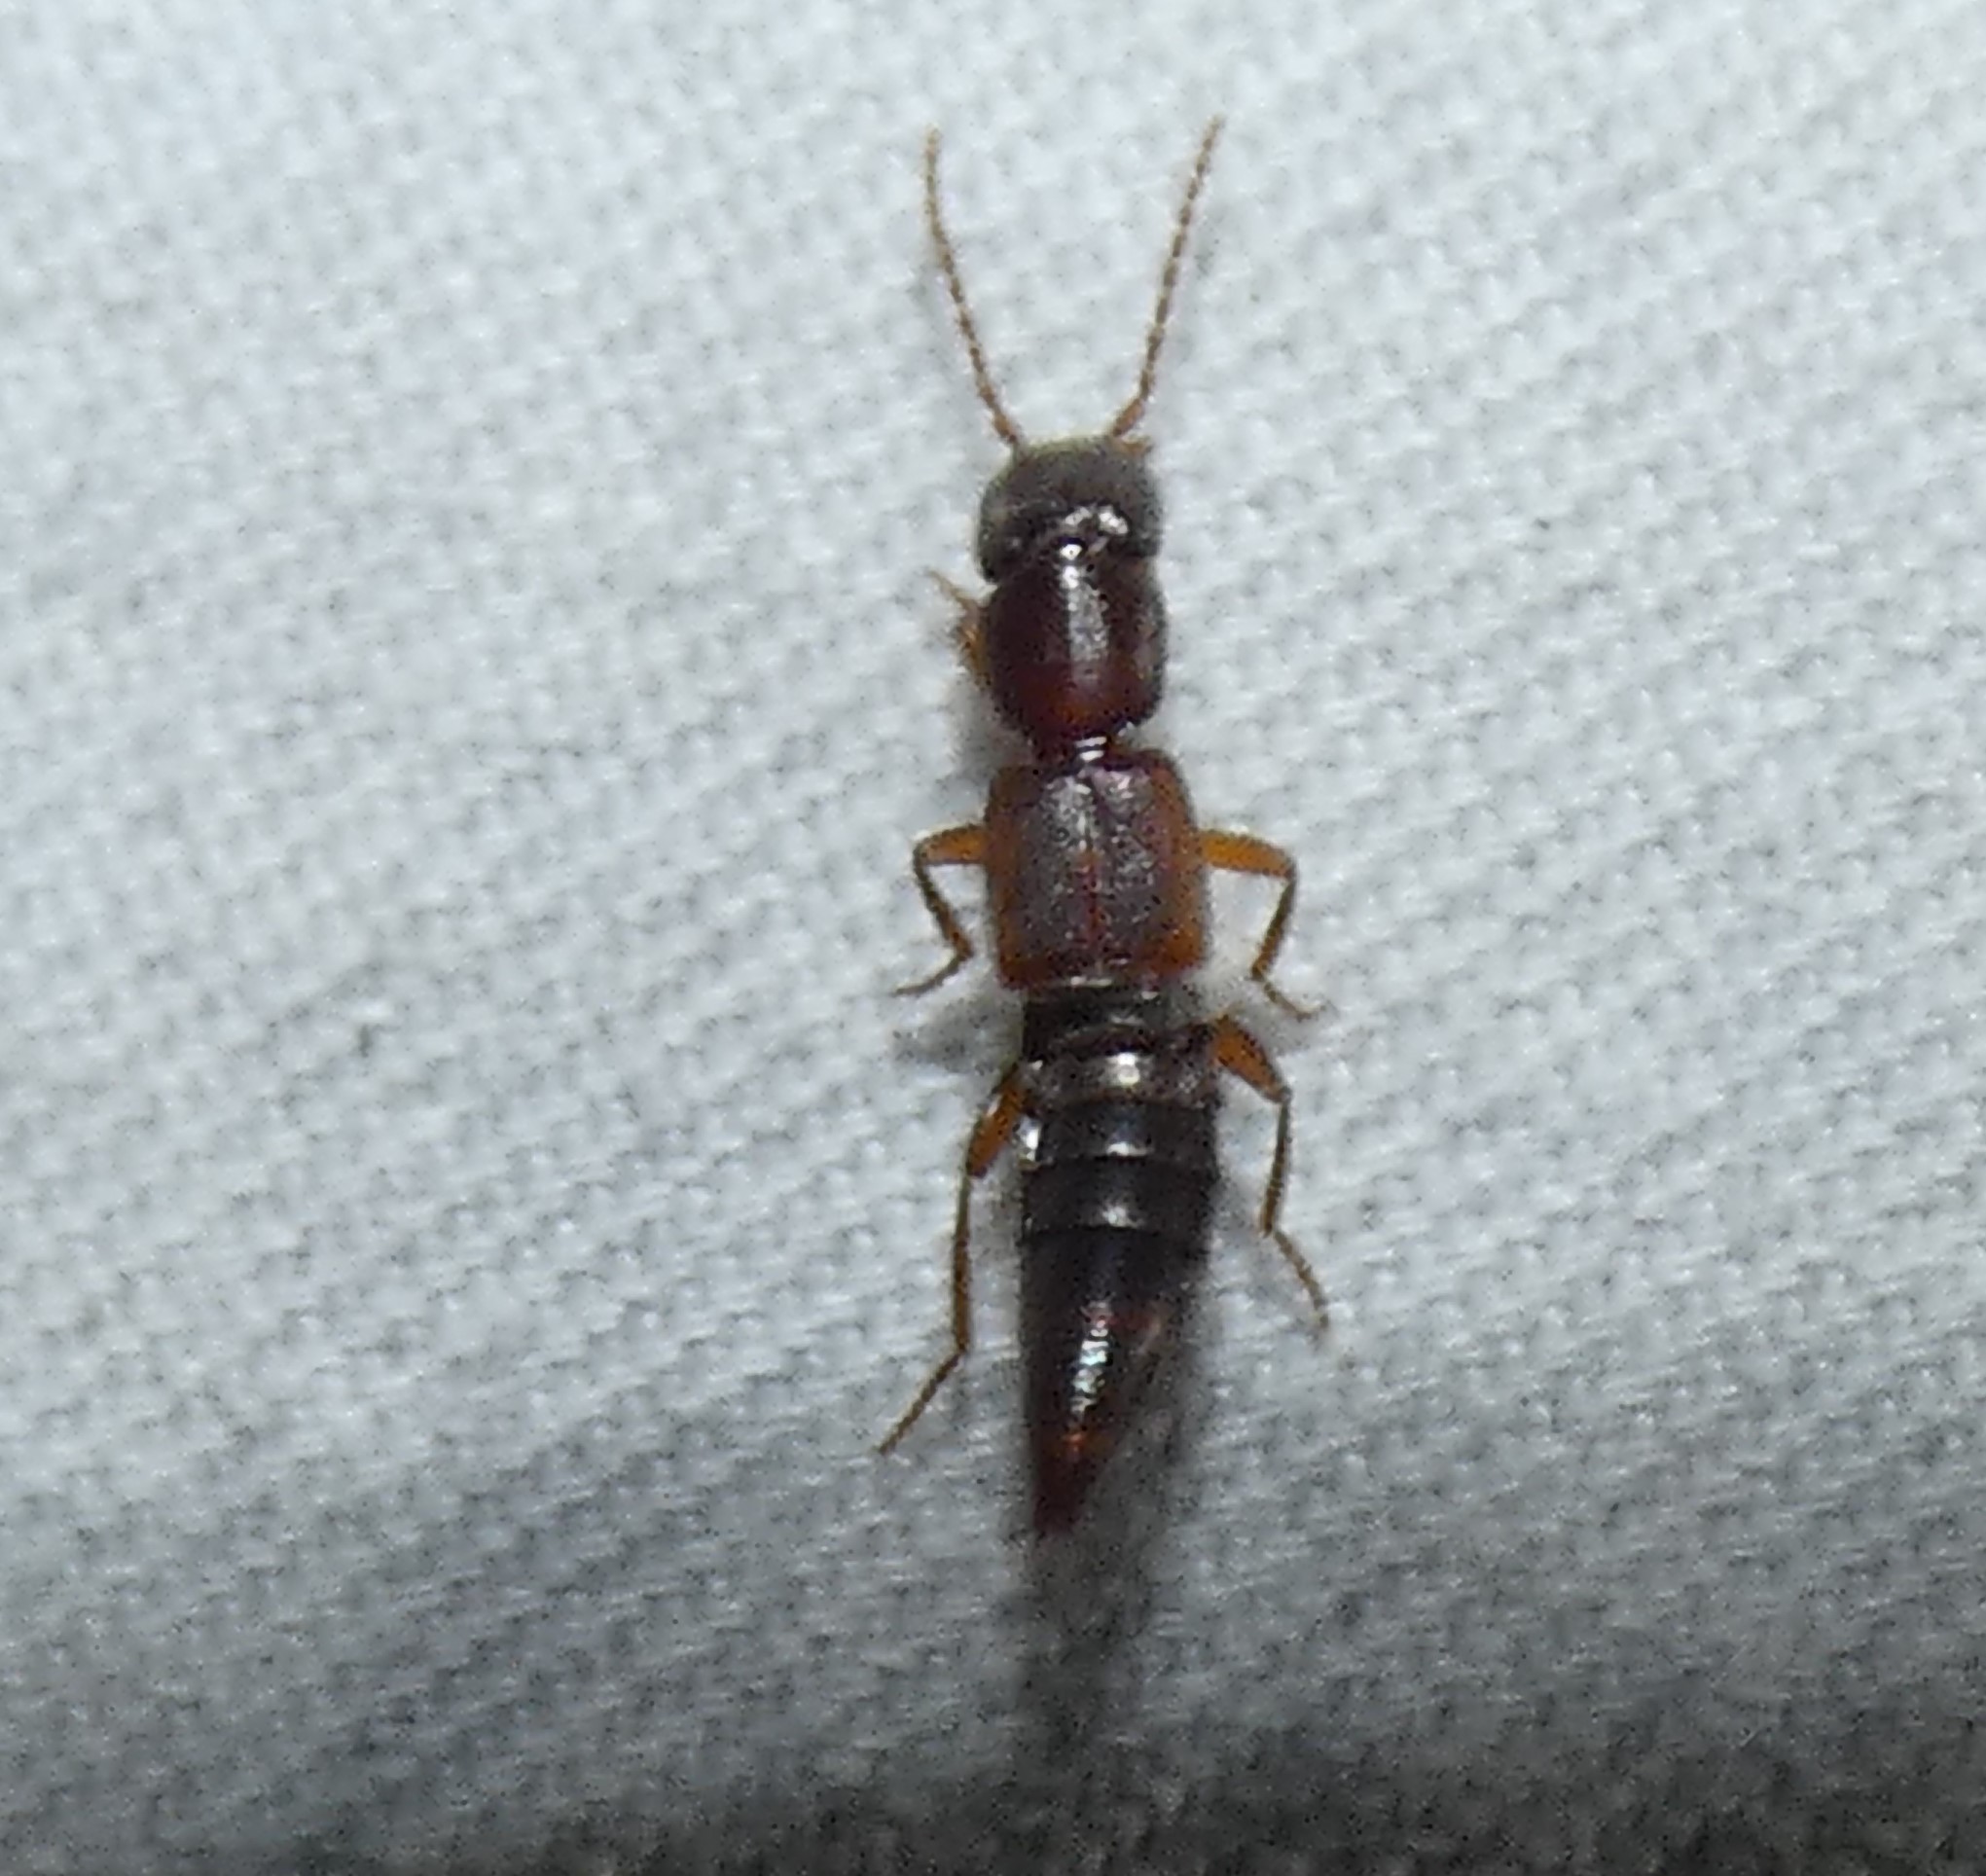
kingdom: Animalia
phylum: Arthropoda
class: Insecta
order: Coleoptera
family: Staphylinidae
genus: Achenomorphus
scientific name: Achenomorphus corticinus
